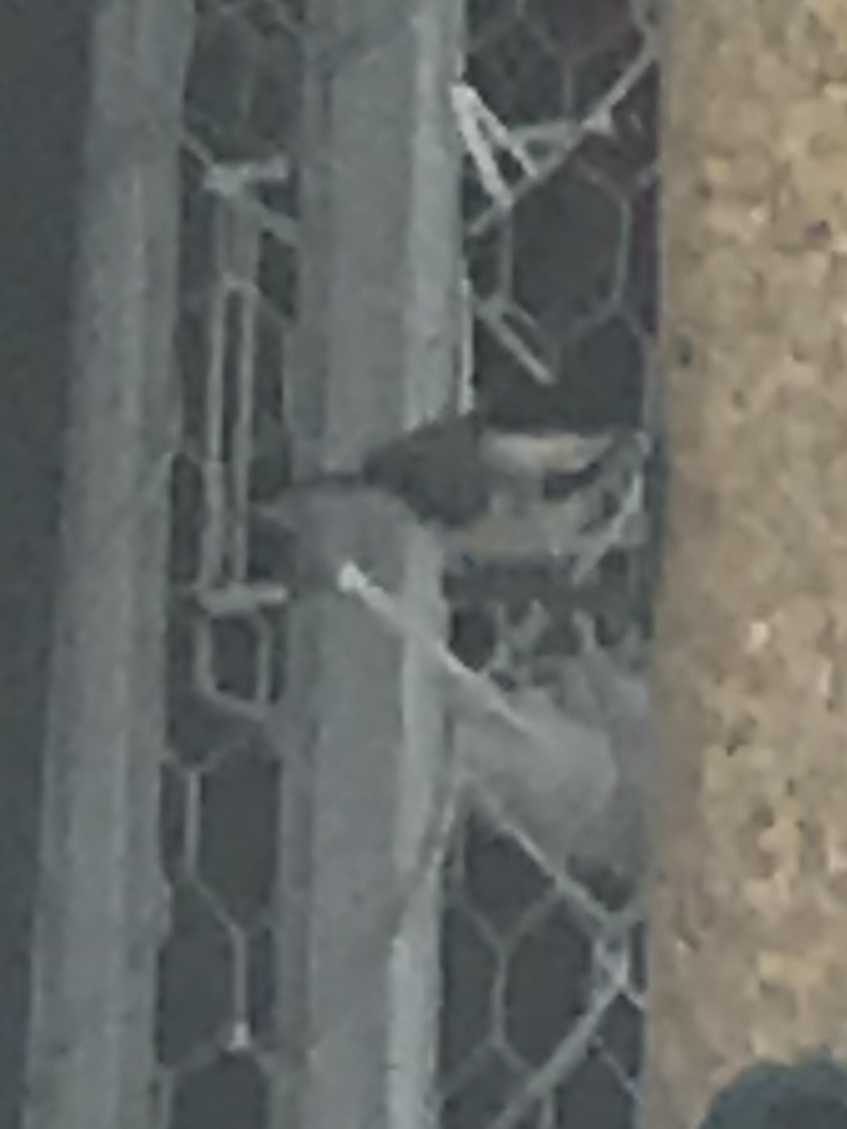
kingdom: Animalia
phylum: Chordata
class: Aves
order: Passeriformes
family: Paridae
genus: Poecile
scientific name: Poecile carolinensis
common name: Carolina chickadee
